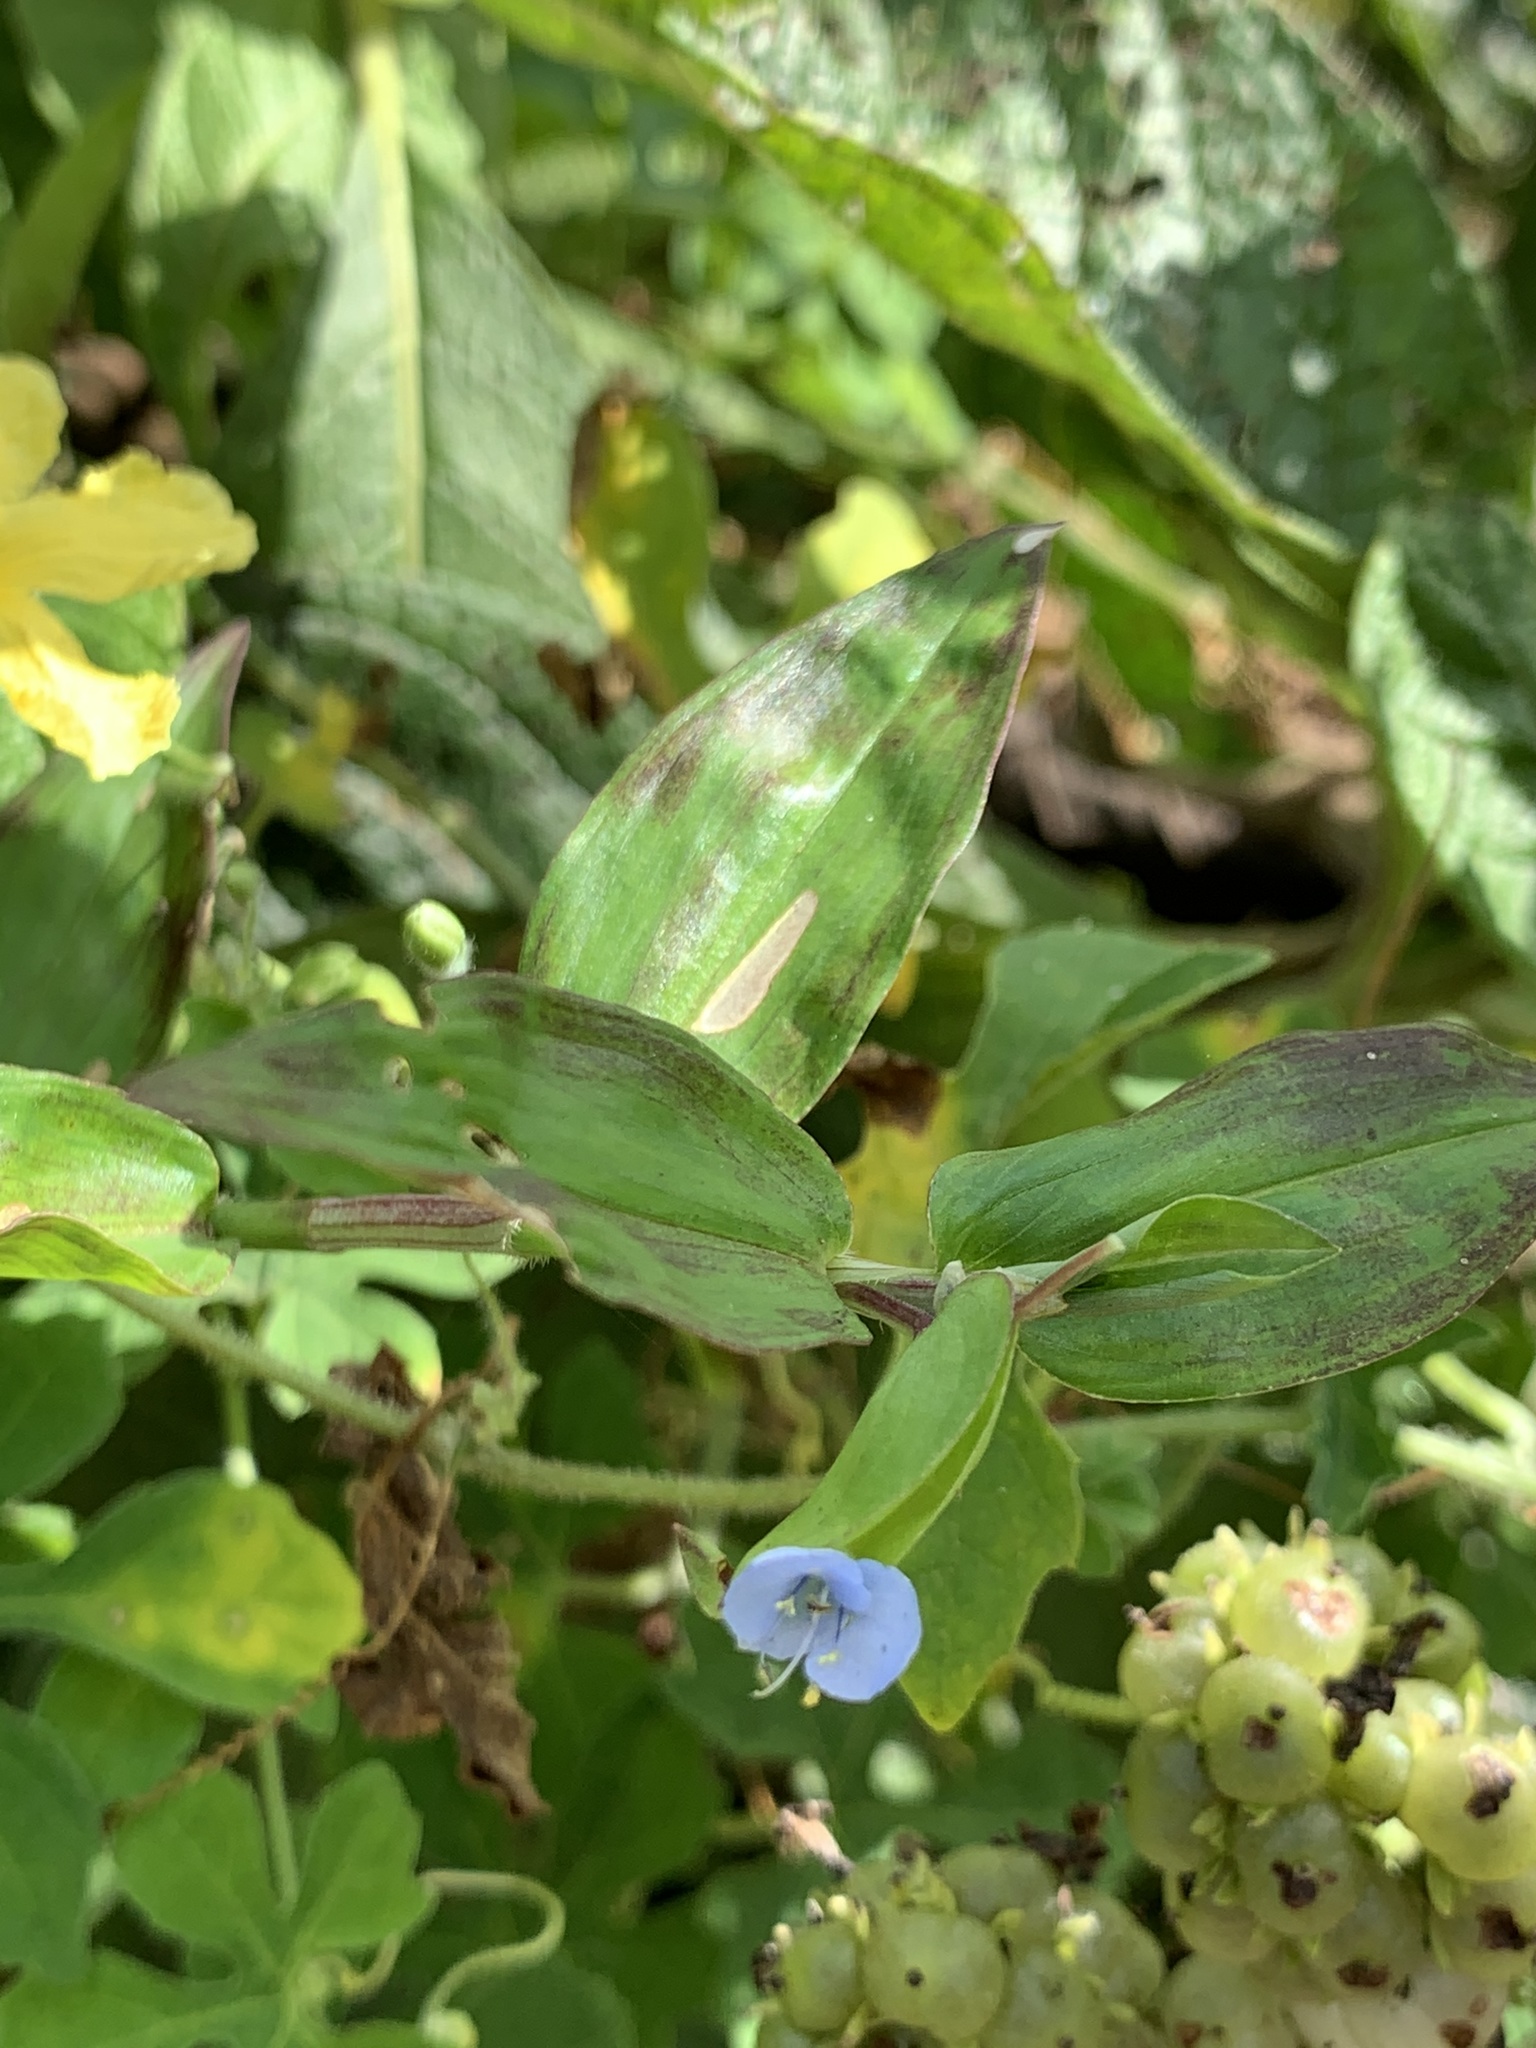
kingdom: Plantae
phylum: Tracheophyta
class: Liliopsida
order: Commelinales
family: Commelinaceae
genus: Commelina
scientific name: Commelina diffusa
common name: Climbing dayflower
